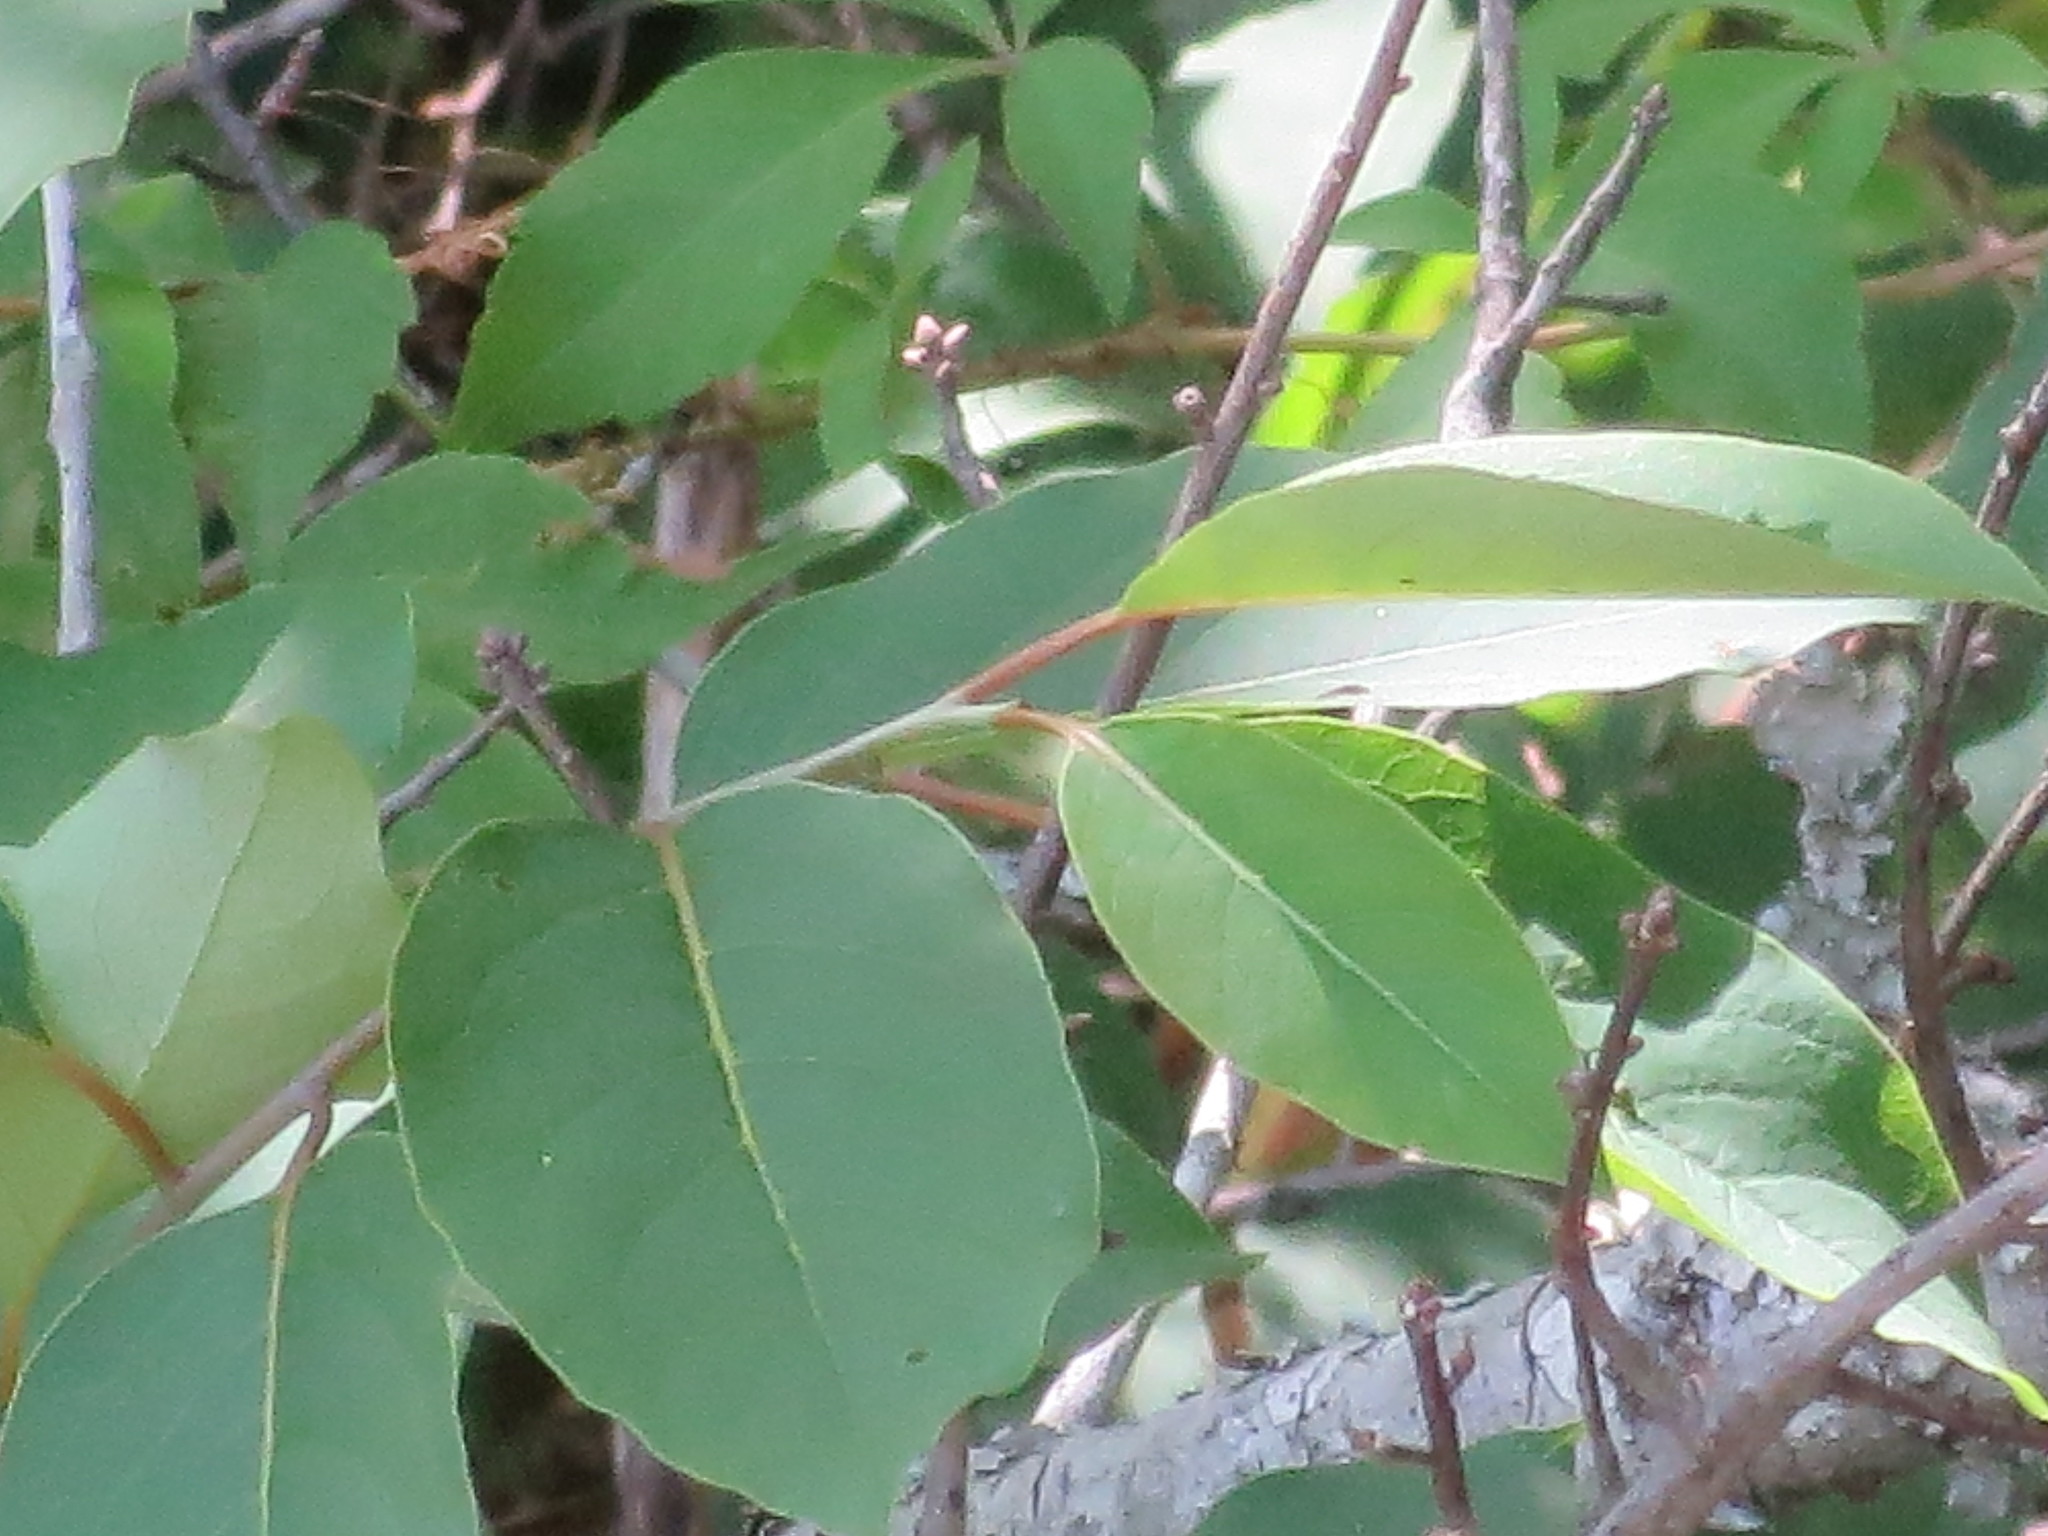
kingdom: Plantae
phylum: Tracheophyta
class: Magnoliopsida
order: Ericales
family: Ebenaceae
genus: Diospyros
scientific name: Diospyros virginiana
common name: Persimmon
